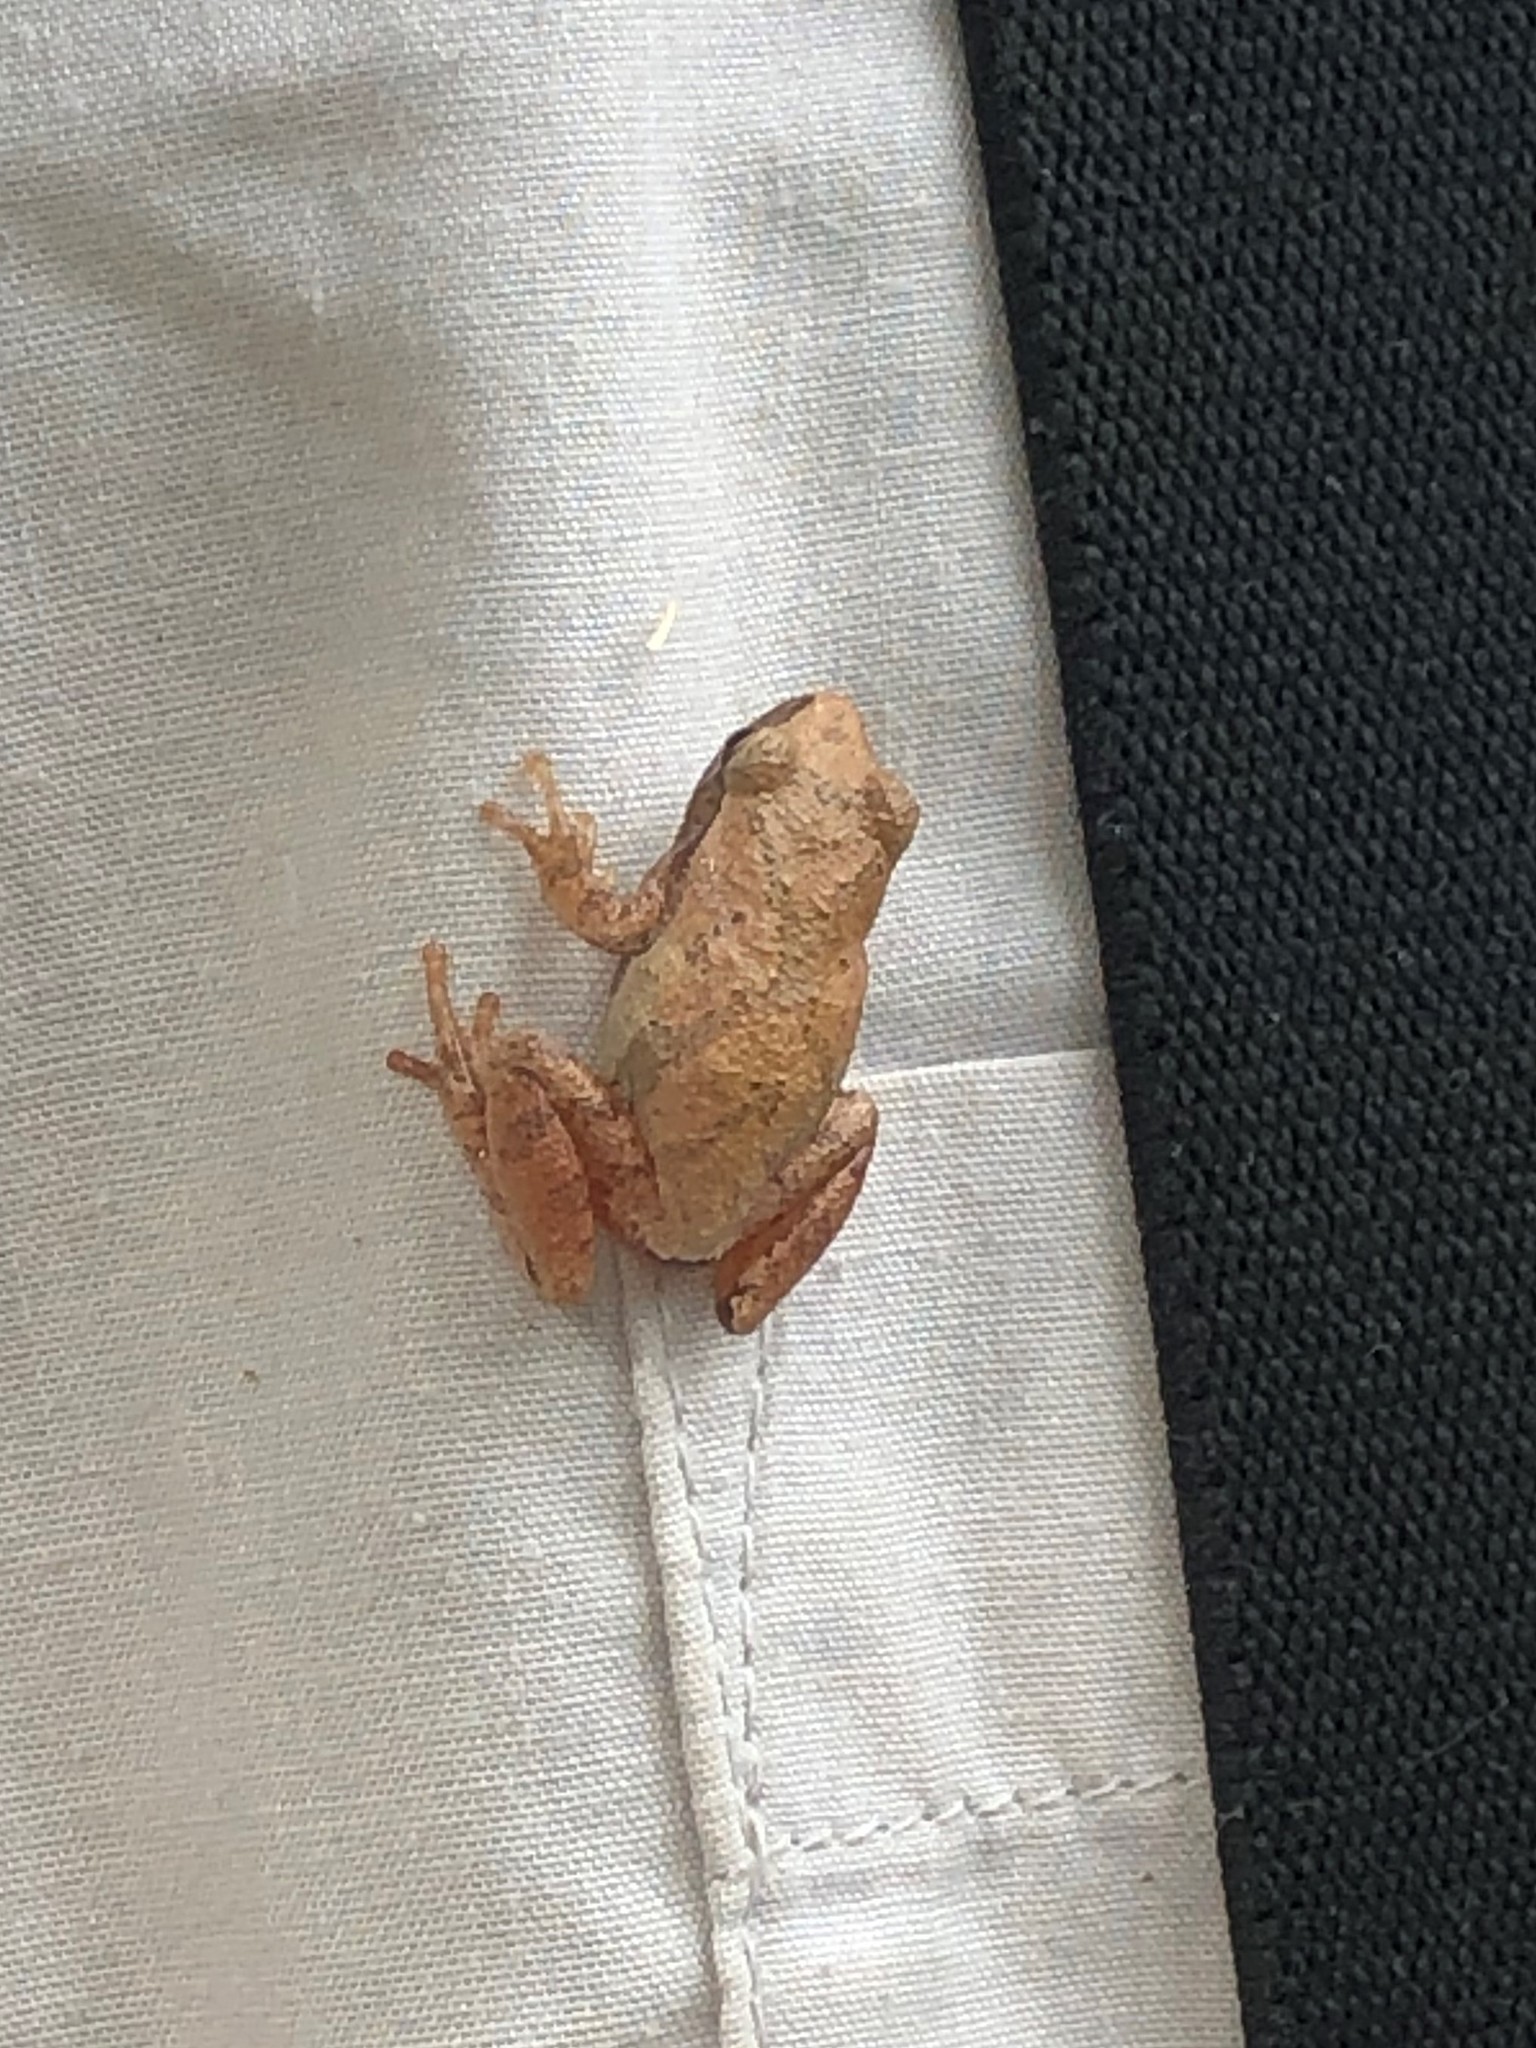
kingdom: Animalia
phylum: Chordata
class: Amphibia
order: Anura
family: Hylidae
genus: Pseudacris
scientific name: Pseudacris crucifer
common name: Spring peeper
